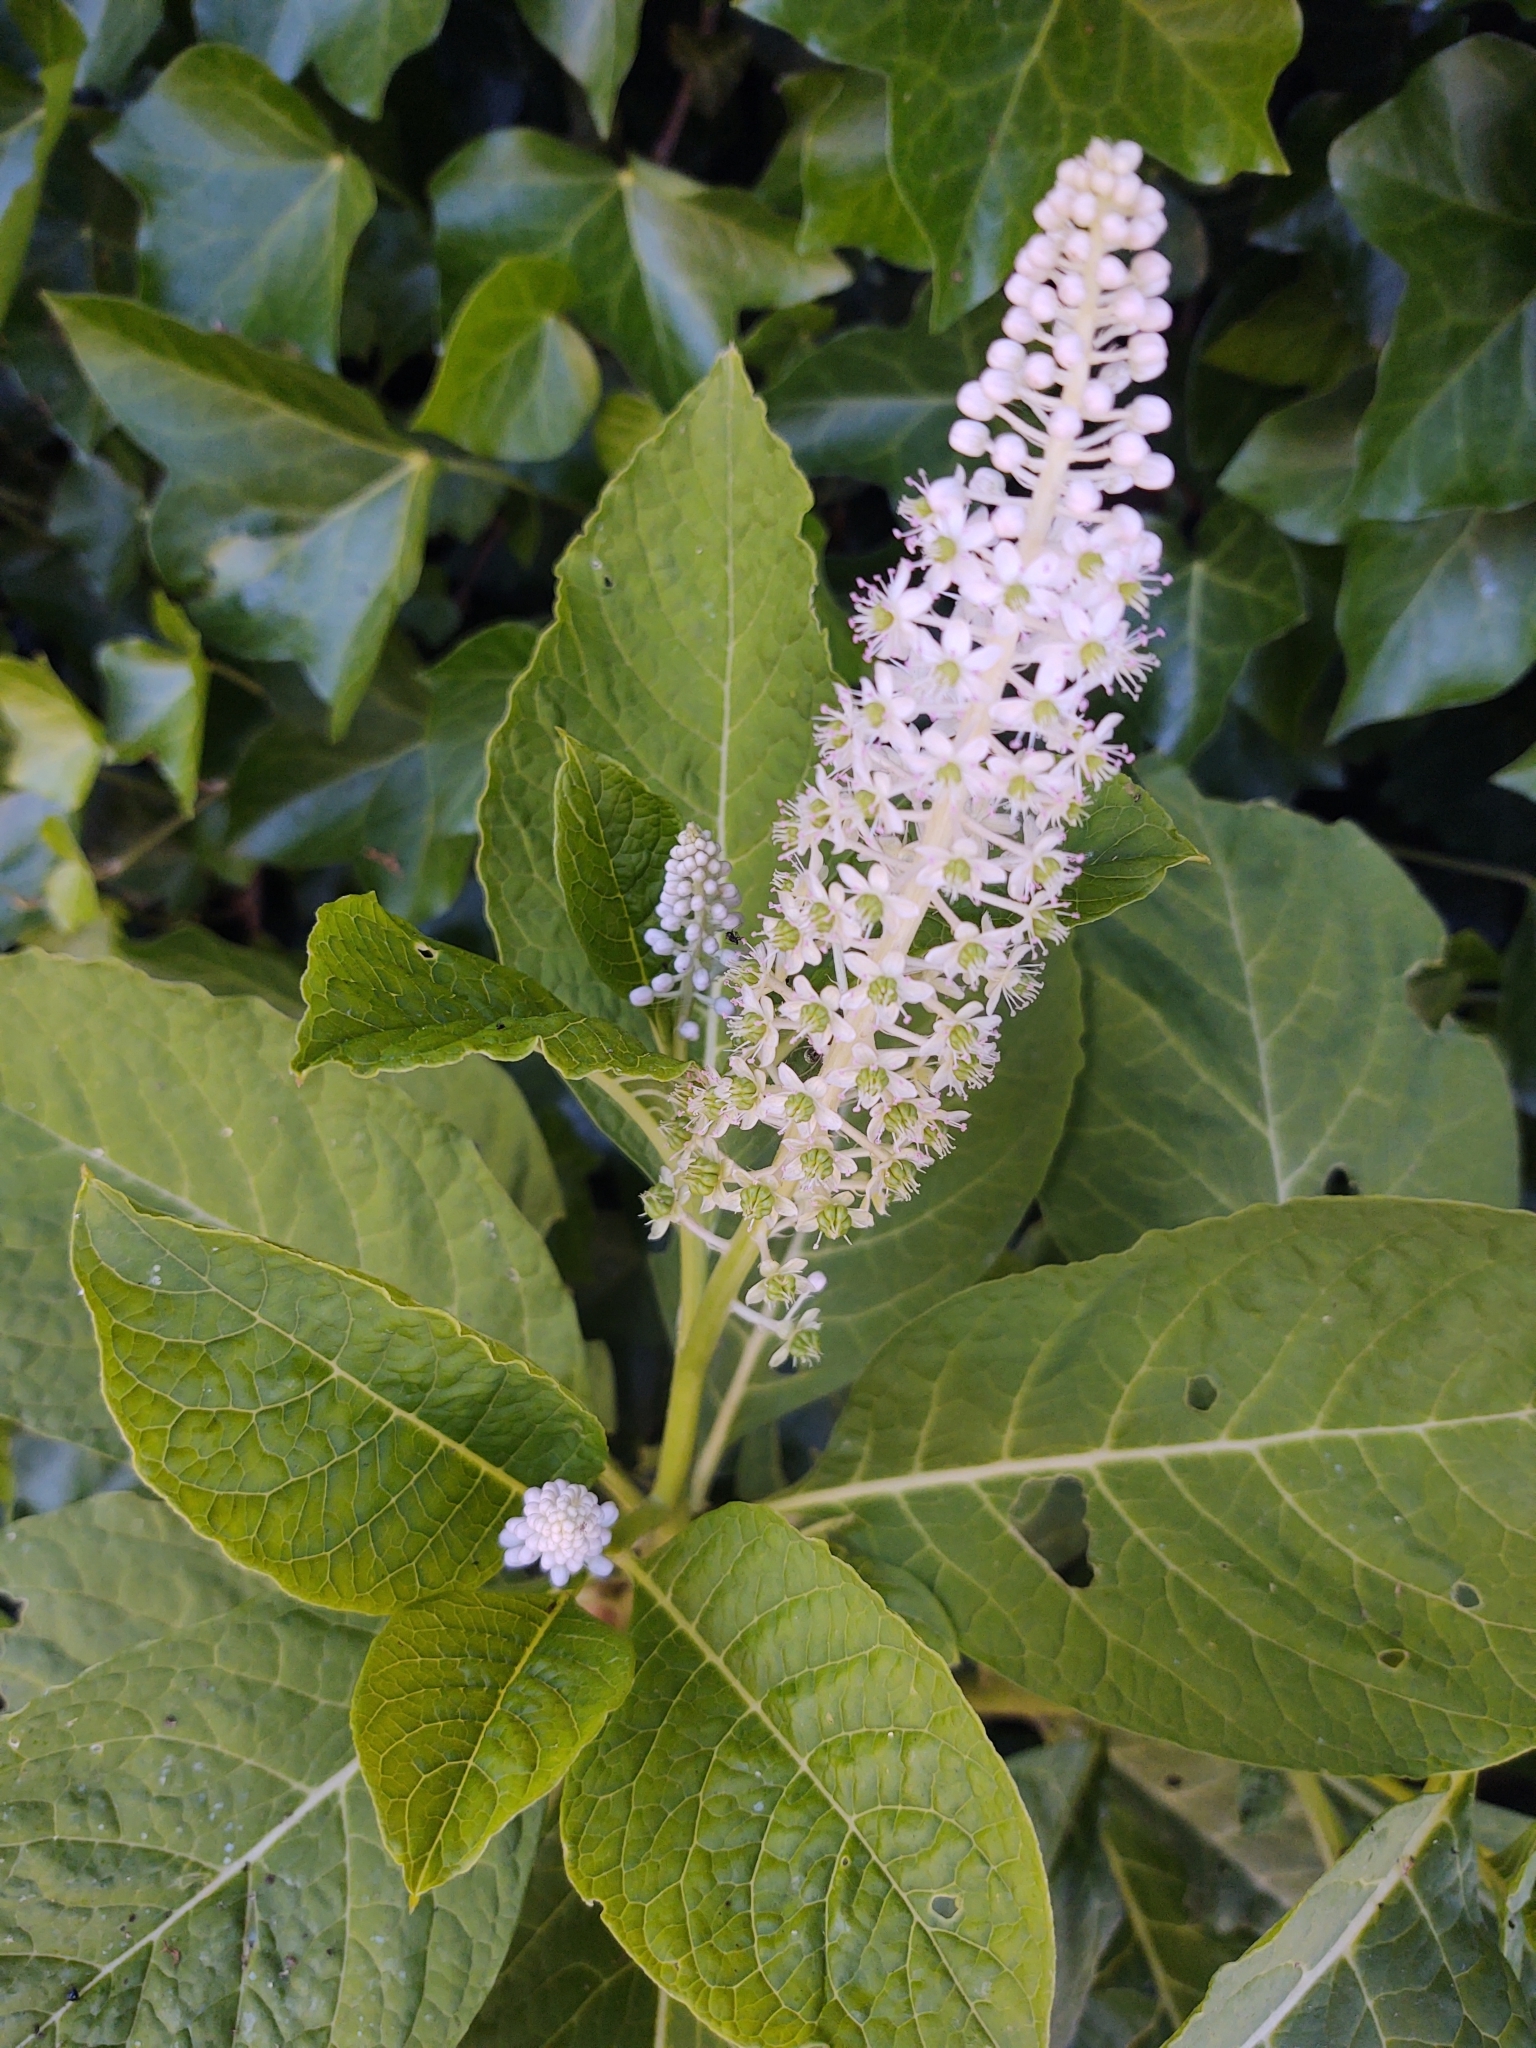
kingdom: Plantae
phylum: Tracheophyta
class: Magnoliopsida
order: Caryophyllales
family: Phytolaccaceae
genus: Phytolacca
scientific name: Phytolacca acinosa
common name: Indian pokeweed
